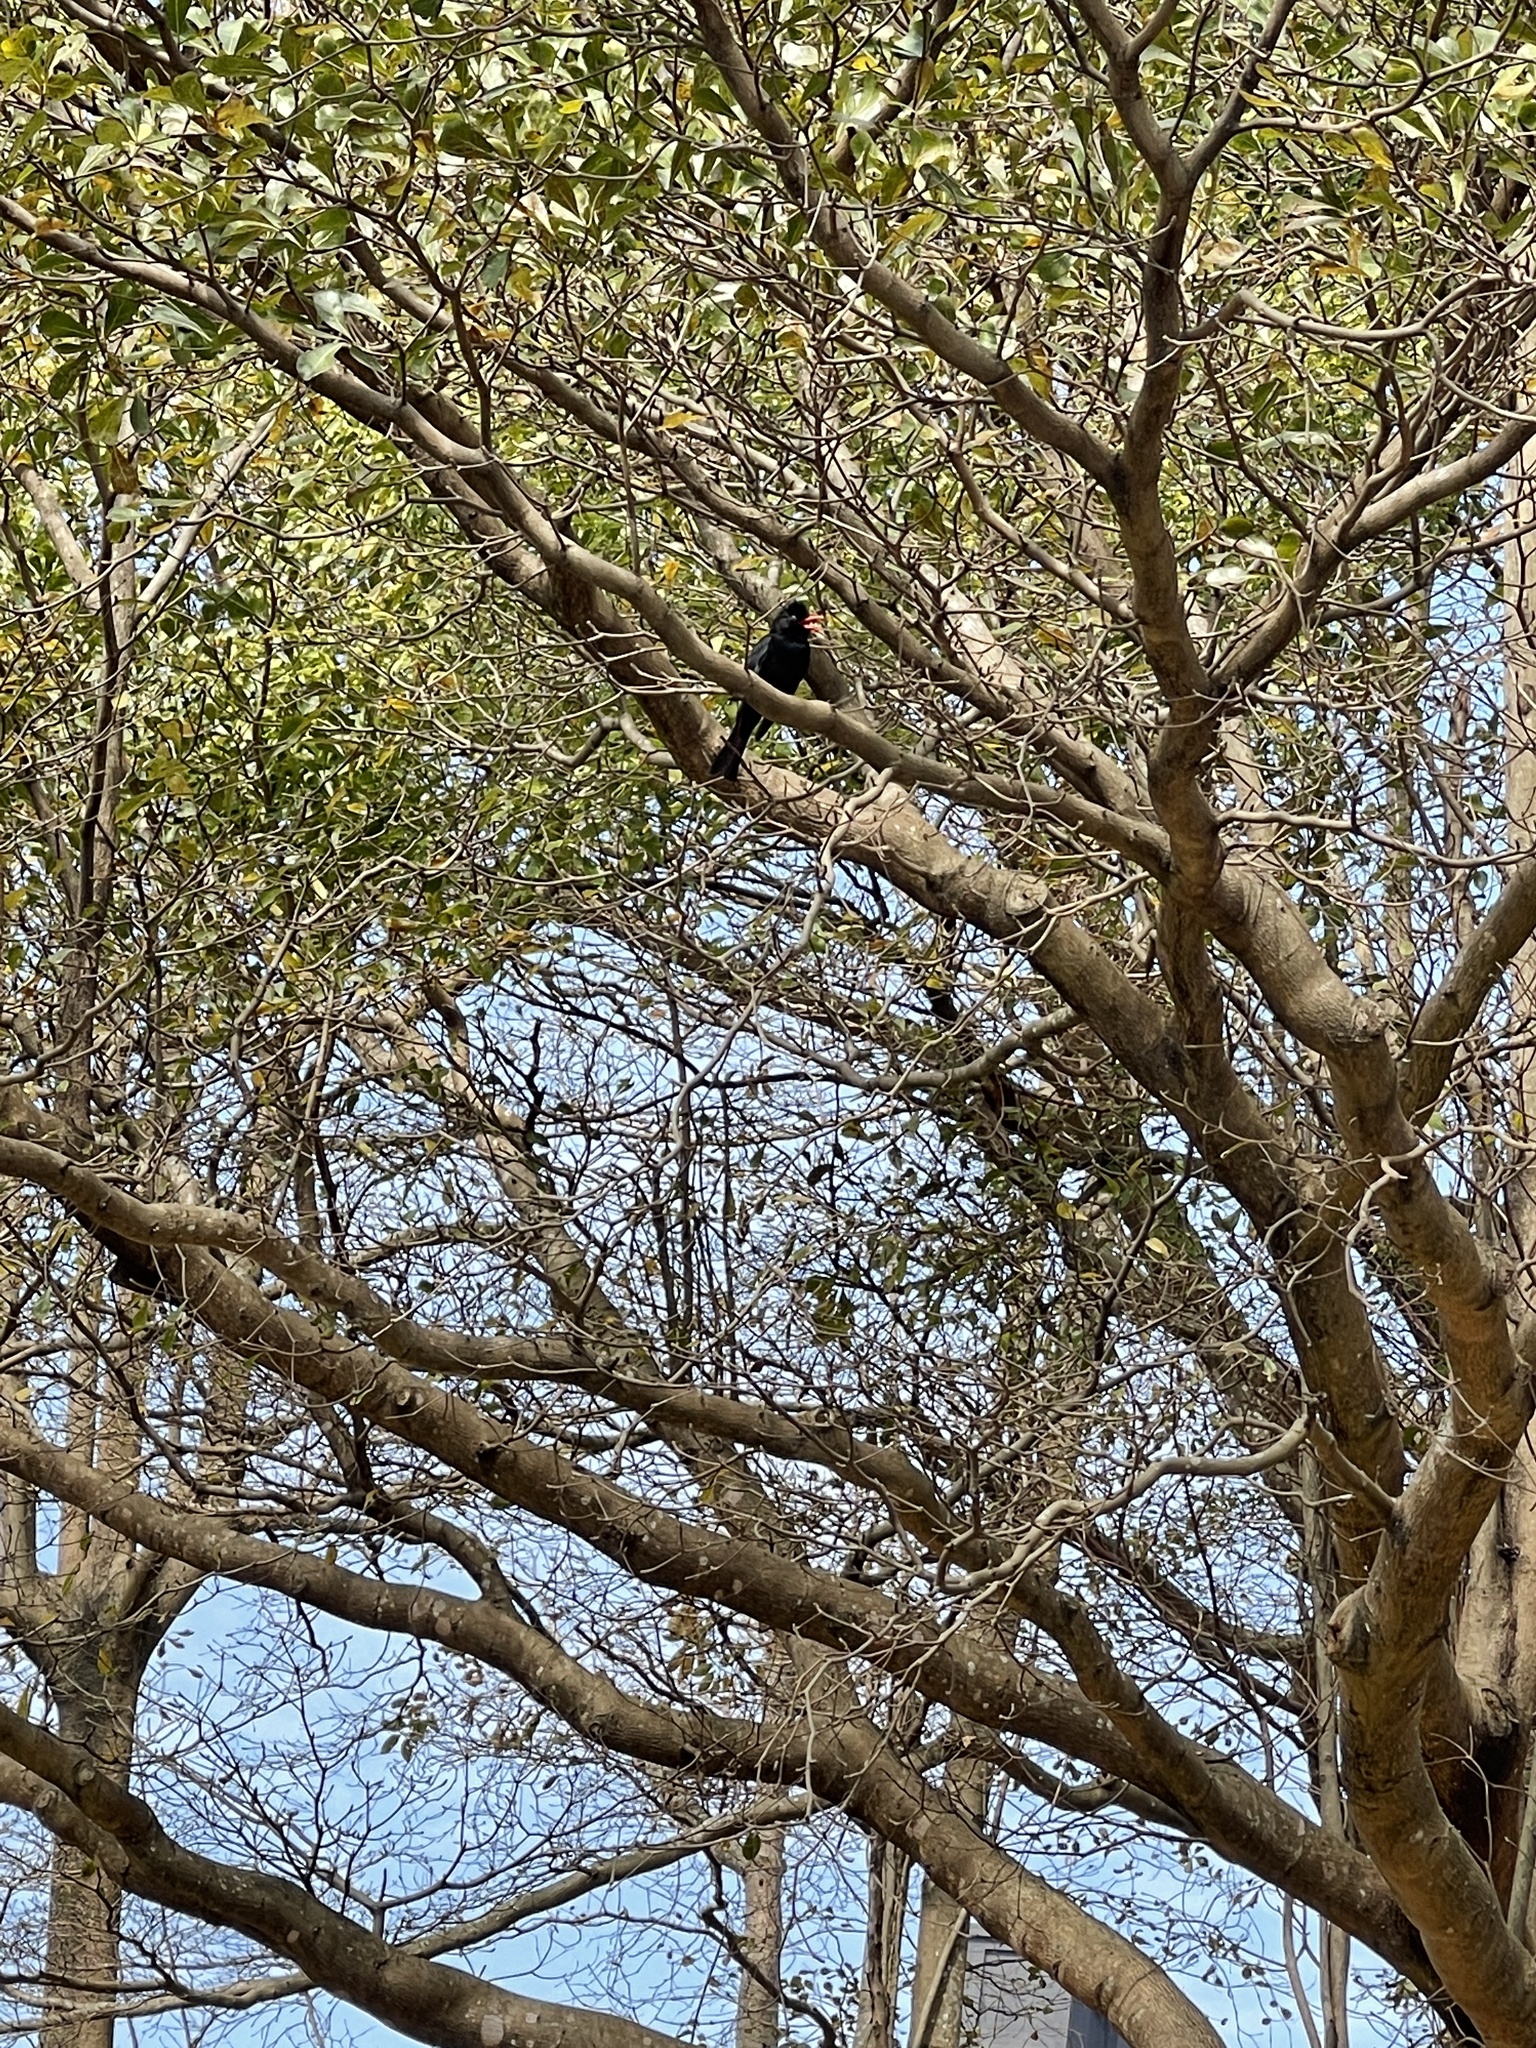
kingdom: Animalia
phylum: Chordata
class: Aves
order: Passeriformes
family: Pycnonotidae
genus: Hypsipetes
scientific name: Hypsipetes leucocephalus
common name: Black bulbul
